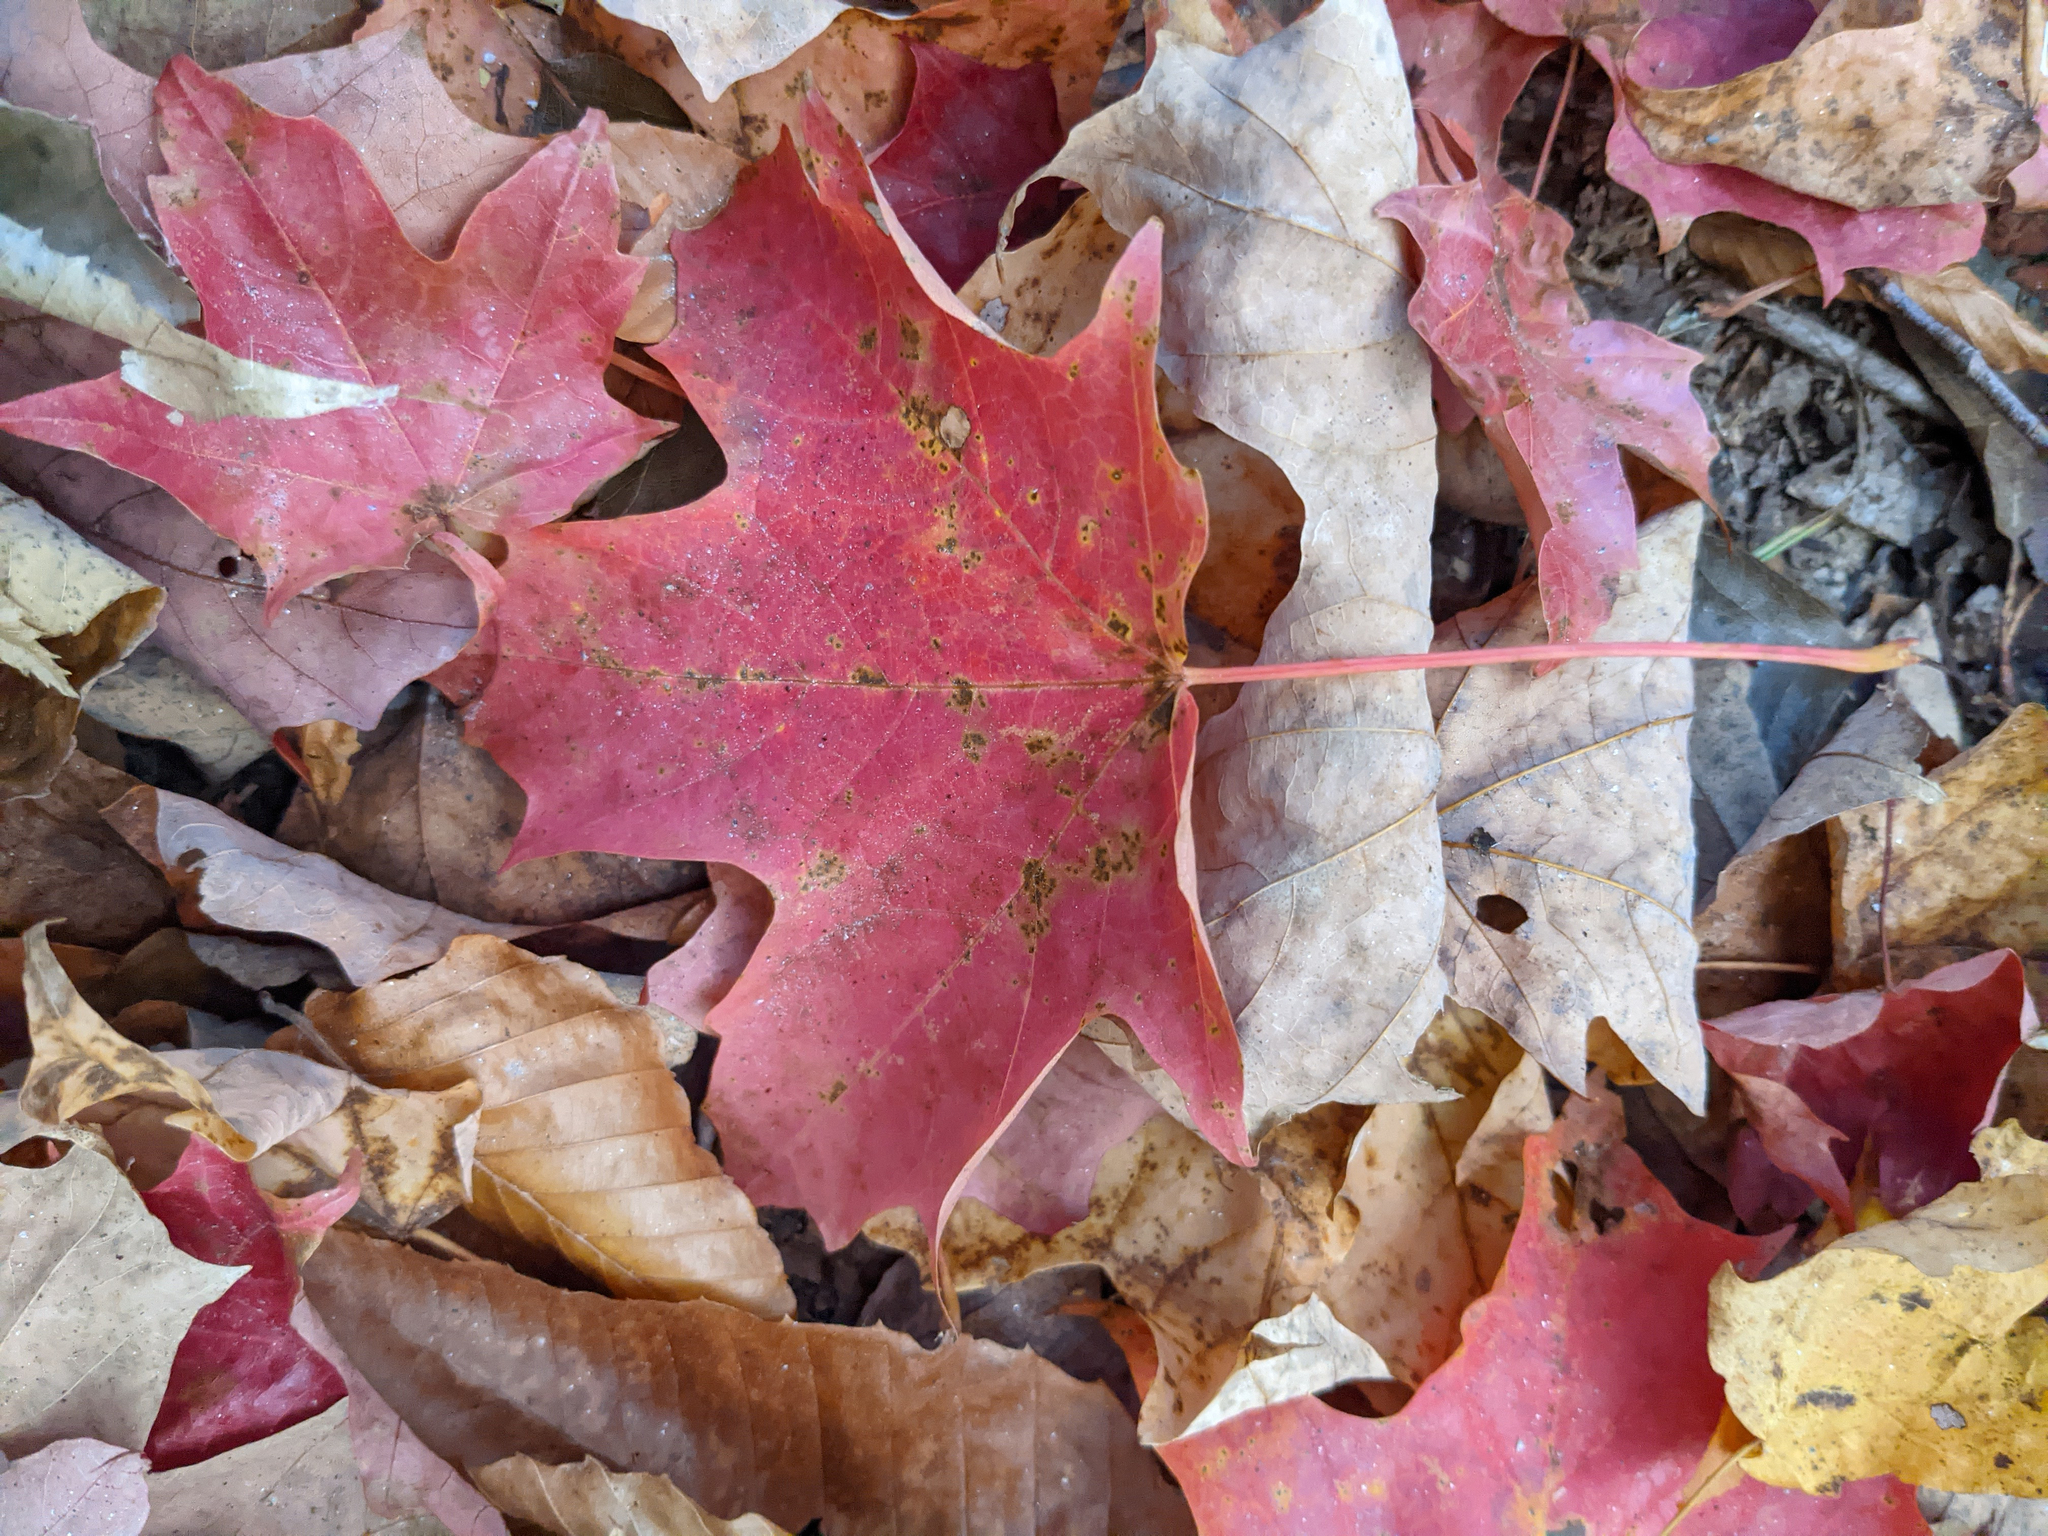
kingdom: Plantae
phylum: Tracheophyta
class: Magnoliopsida
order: Sapindales
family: Sapindaceae
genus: Acer
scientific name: Acer saccharum
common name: Sugar maple
